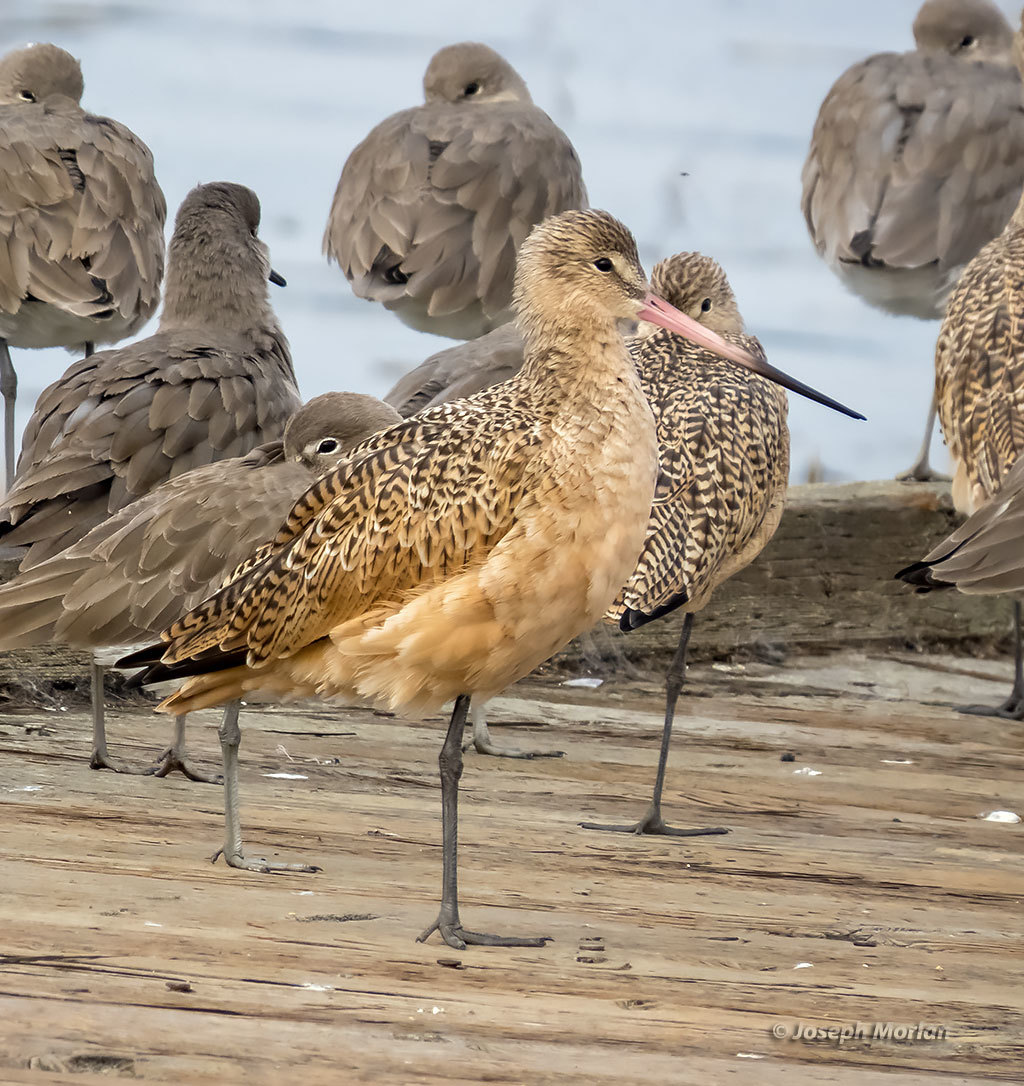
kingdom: Animalia
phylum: Chordata
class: Aves
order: Charadriiformes
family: Scolopacidae
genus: Limosa
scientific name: Limosa fedoa
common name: Marbled godwit
